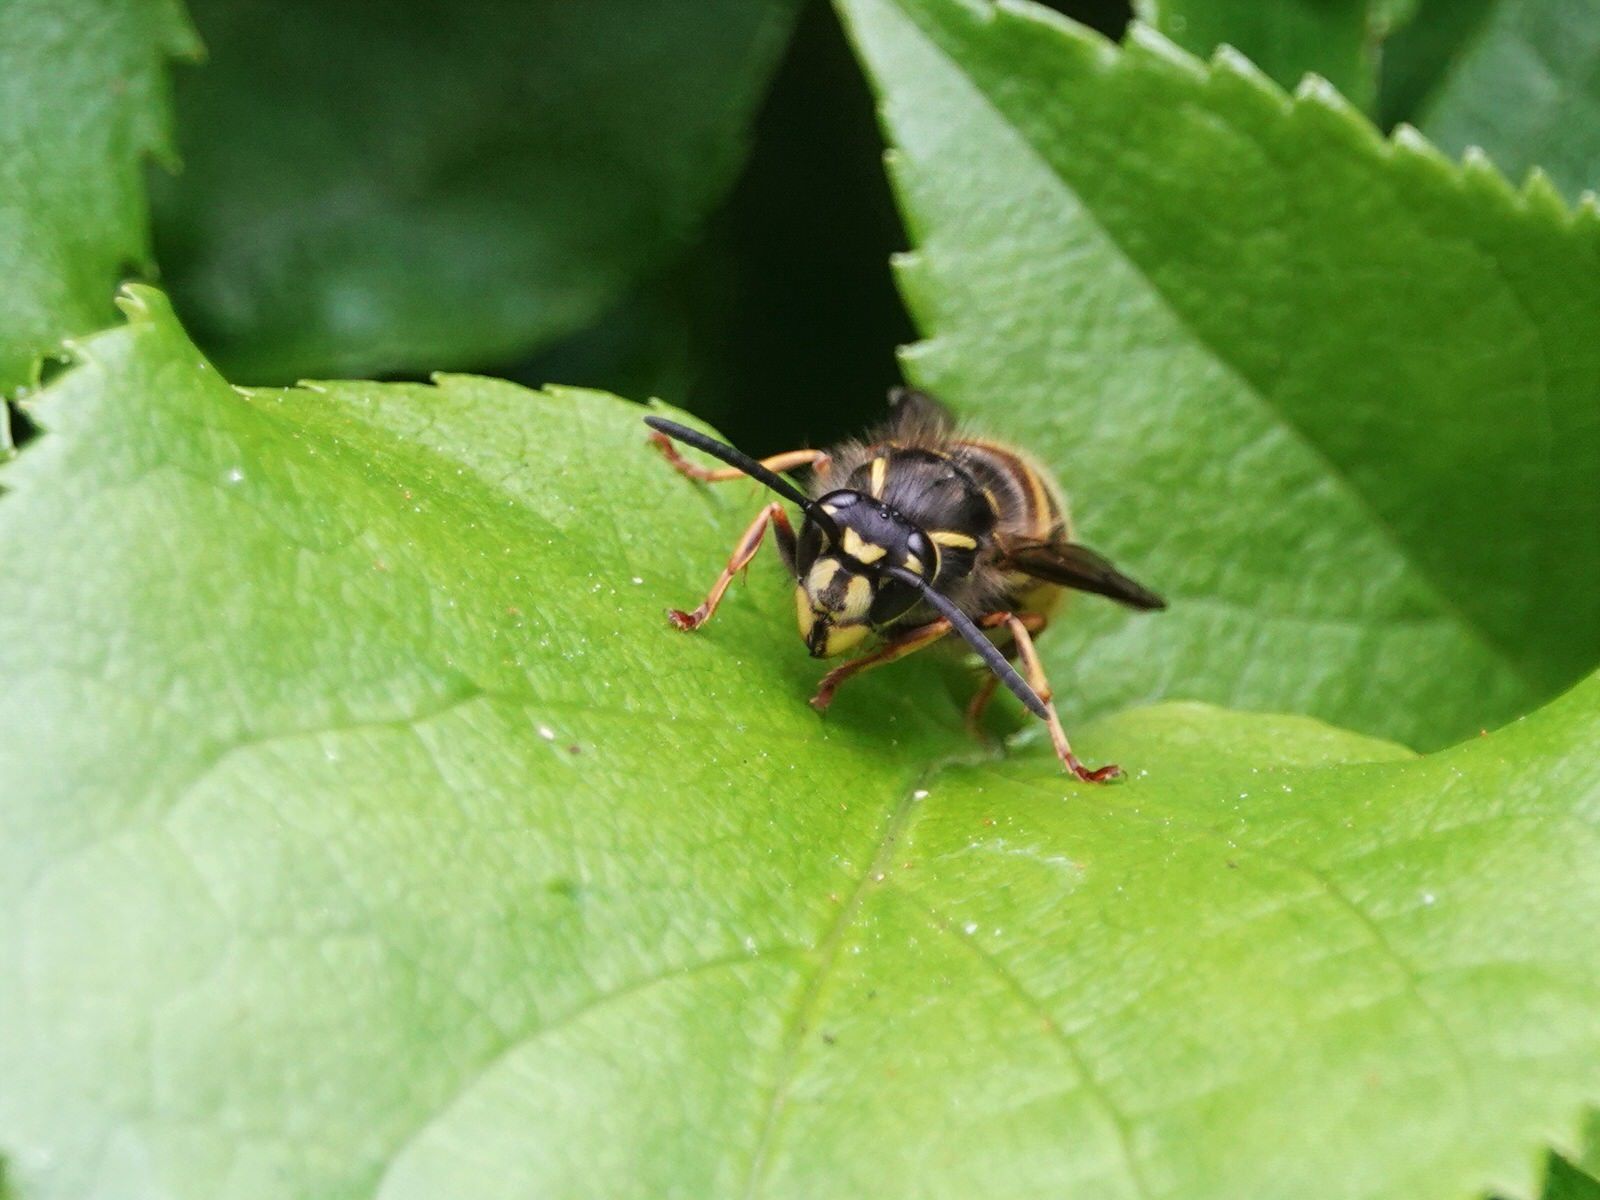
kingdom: Animalia
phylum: Arthropoda
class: Insecta
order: Hymenoptera
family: Vespidae
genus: Vespula
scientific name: Vespula vulgaris
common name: Common wasp
